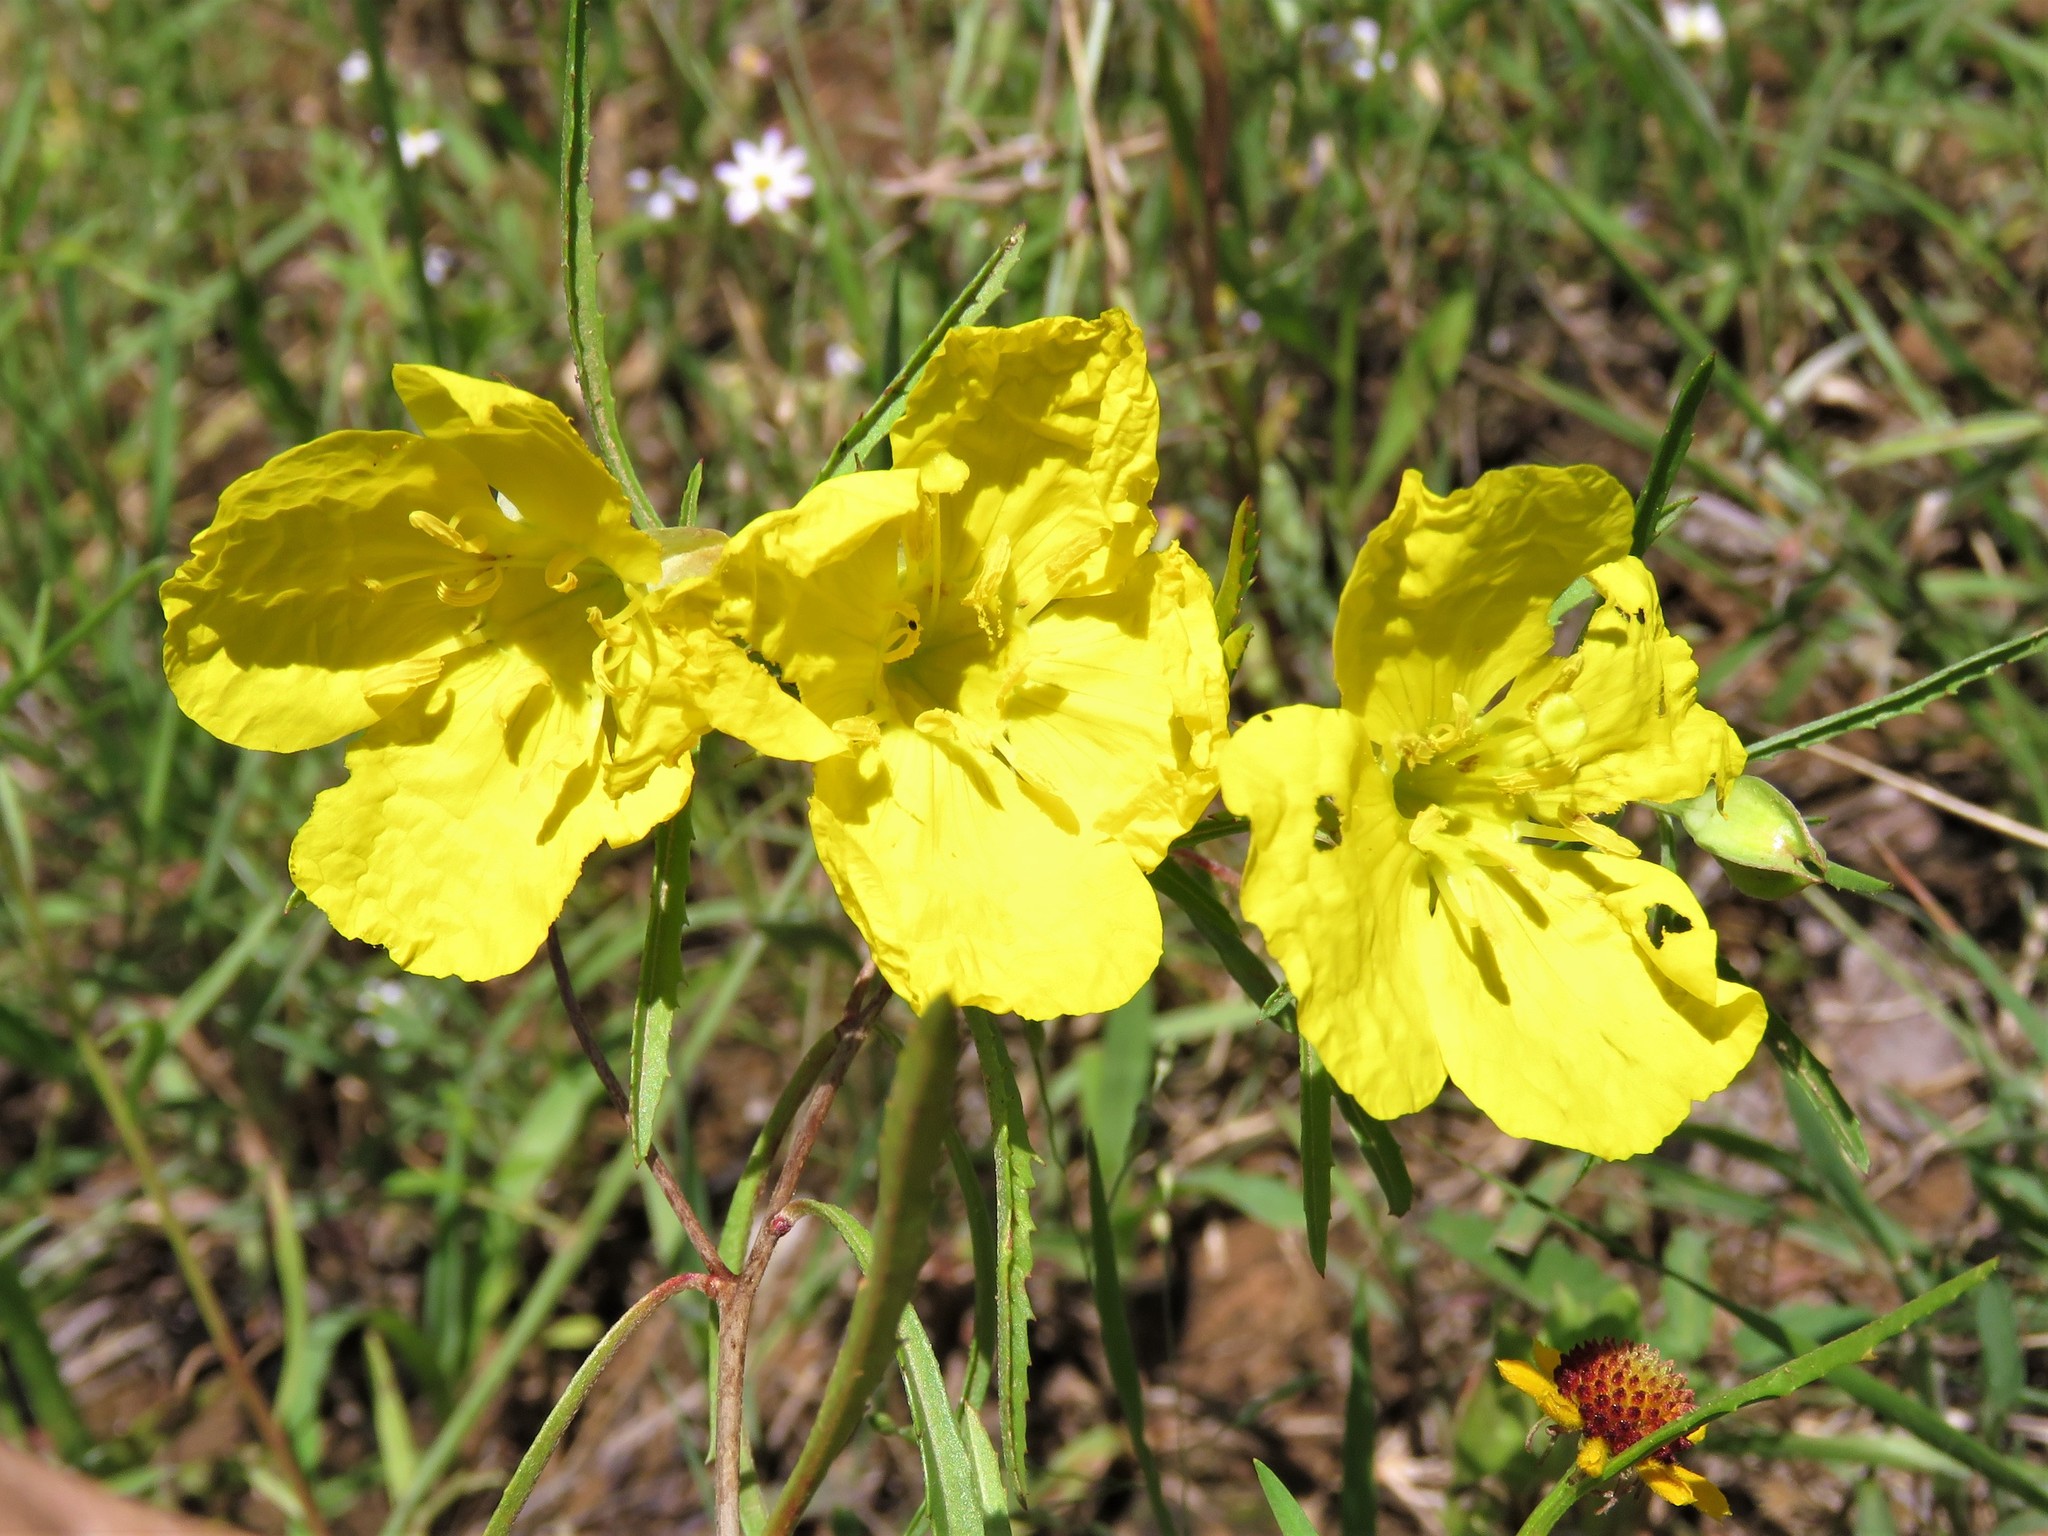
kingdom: Plantae
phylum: Tracheophyta
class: Magnoliopsida
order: Myrtales
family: Onagraceae
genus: Oenothera
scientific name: Oenothera
